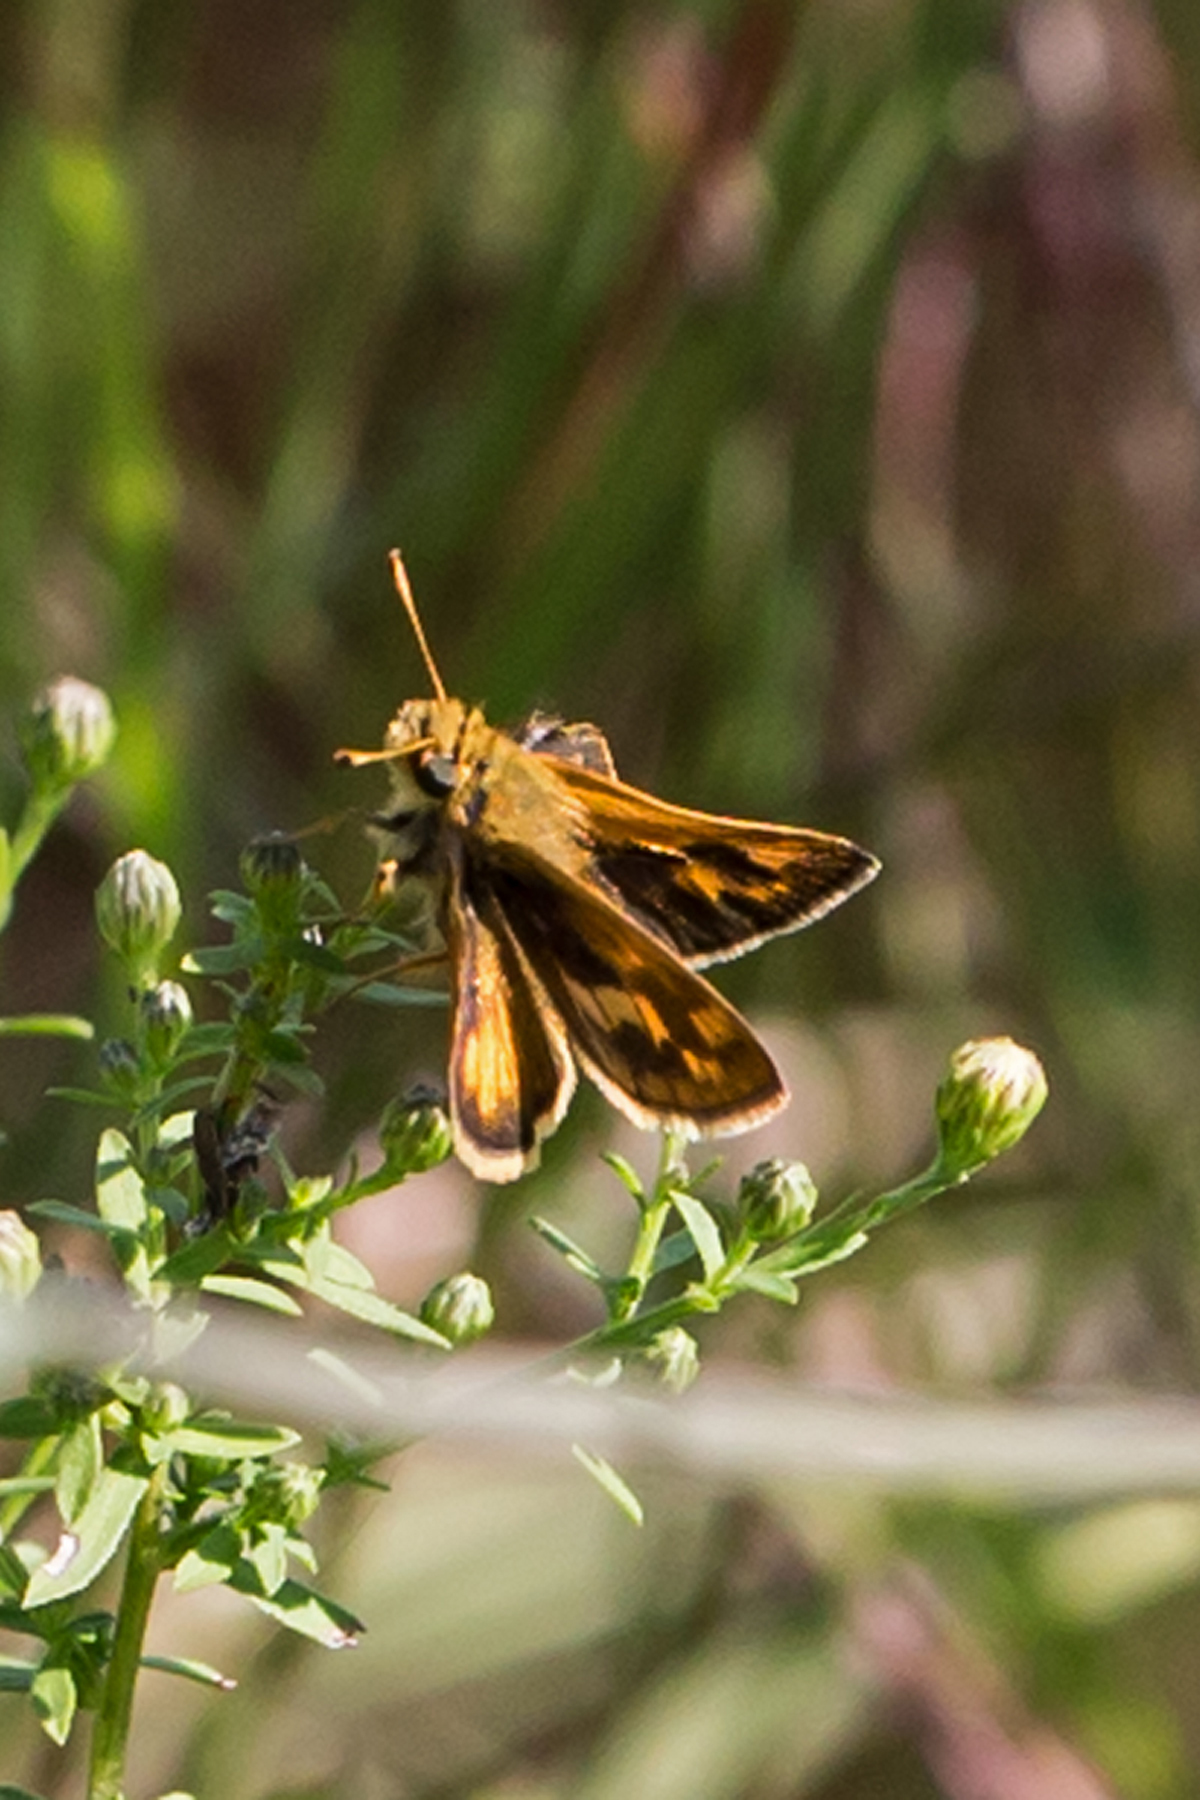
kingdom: Animalia
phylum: Arthropoda
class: Insecta
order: Lepidoptera
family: Hesperiidae
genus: Polites
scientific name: Polites coras
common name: Peck's skipper
